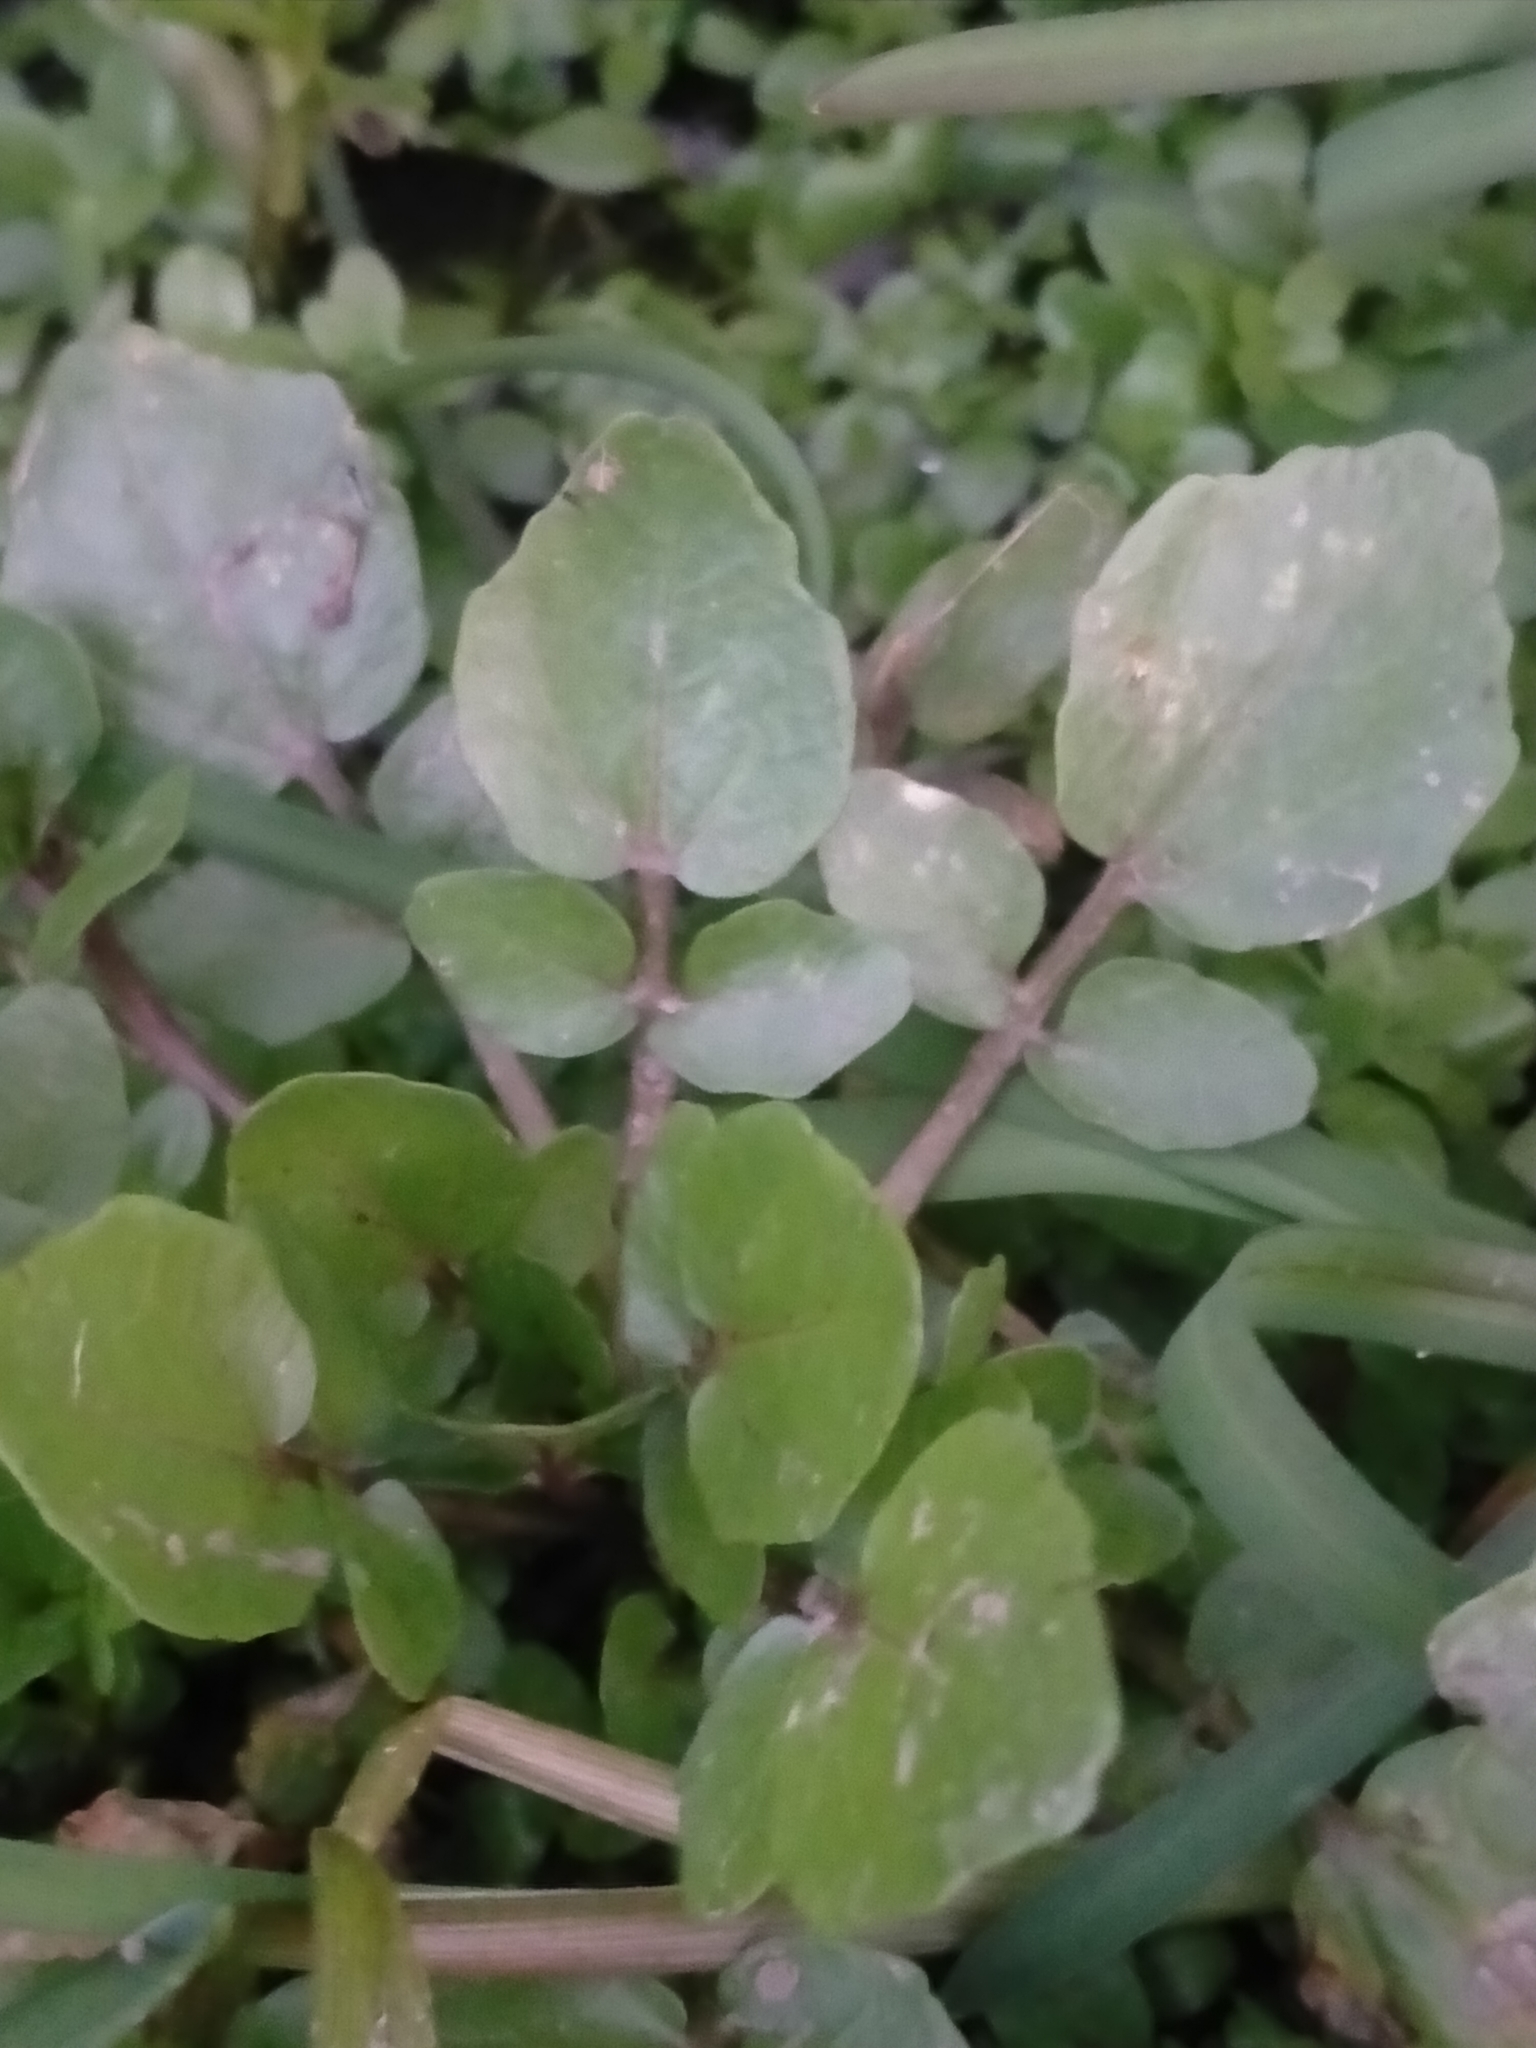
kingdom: Plantae
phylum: Tracheophyta
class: Magnoliopsida
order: Brassicales
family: Brassicaceae
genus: Nasturtium
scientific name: Nasturtium officinale
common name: Watercress
